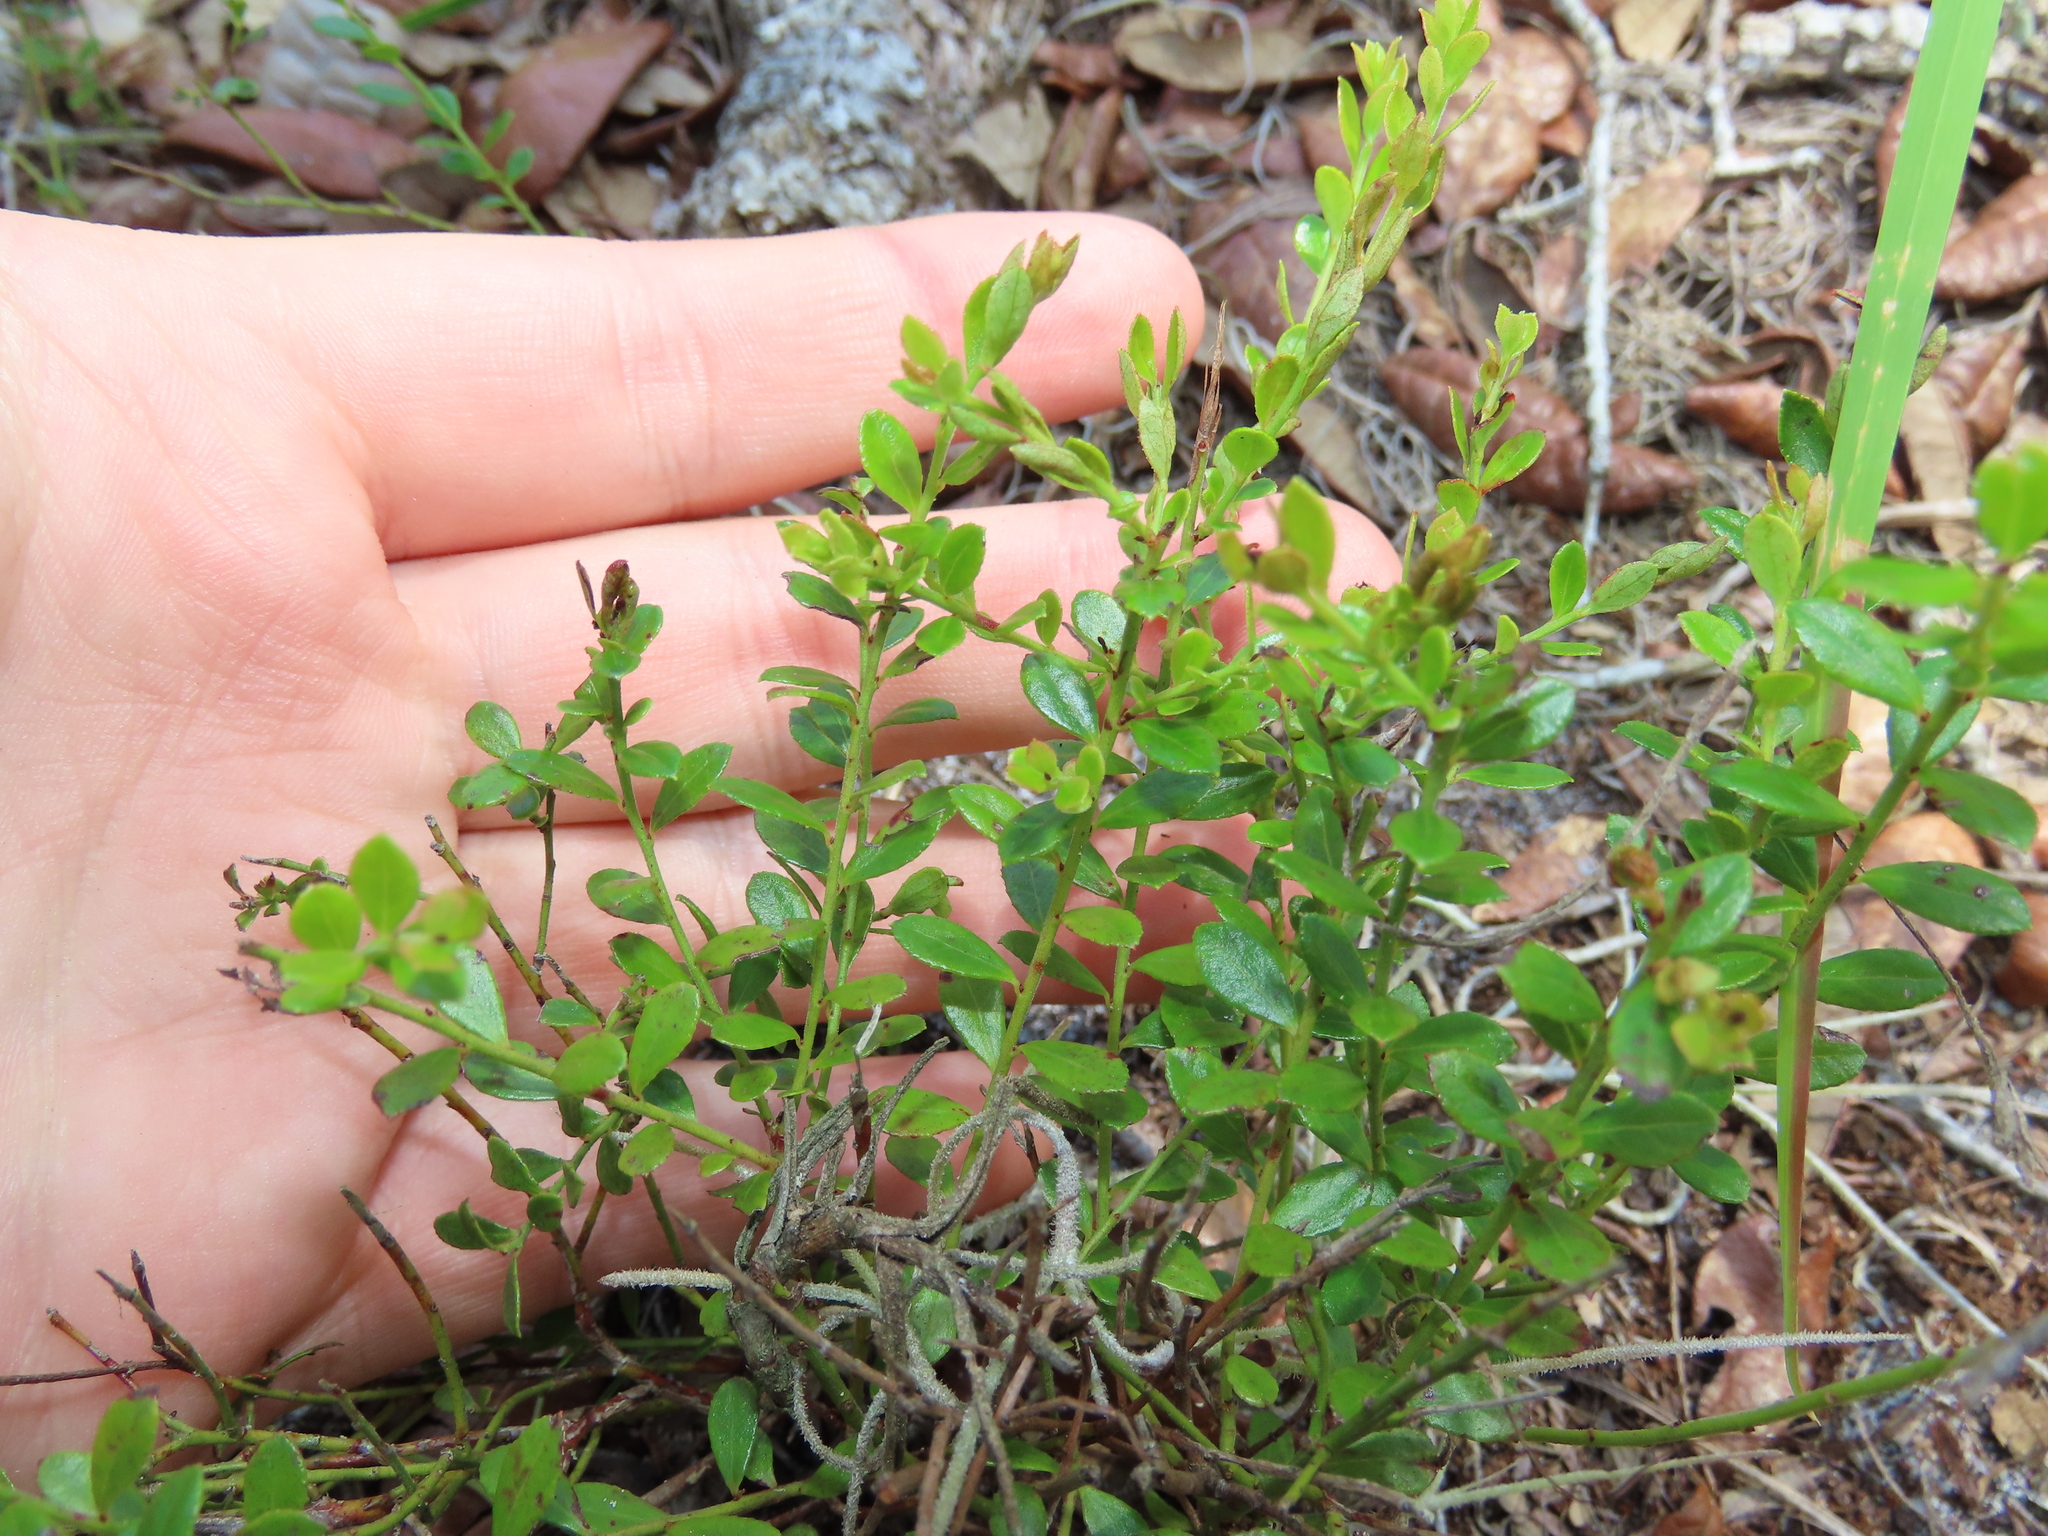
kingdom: Plantae
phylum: Tracheophyta
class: Magnoliopsida
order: Ericales
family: Ericaceae
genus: Vaccinium
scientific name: Vaccinium myrsinites
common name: Evergreen blueberry
